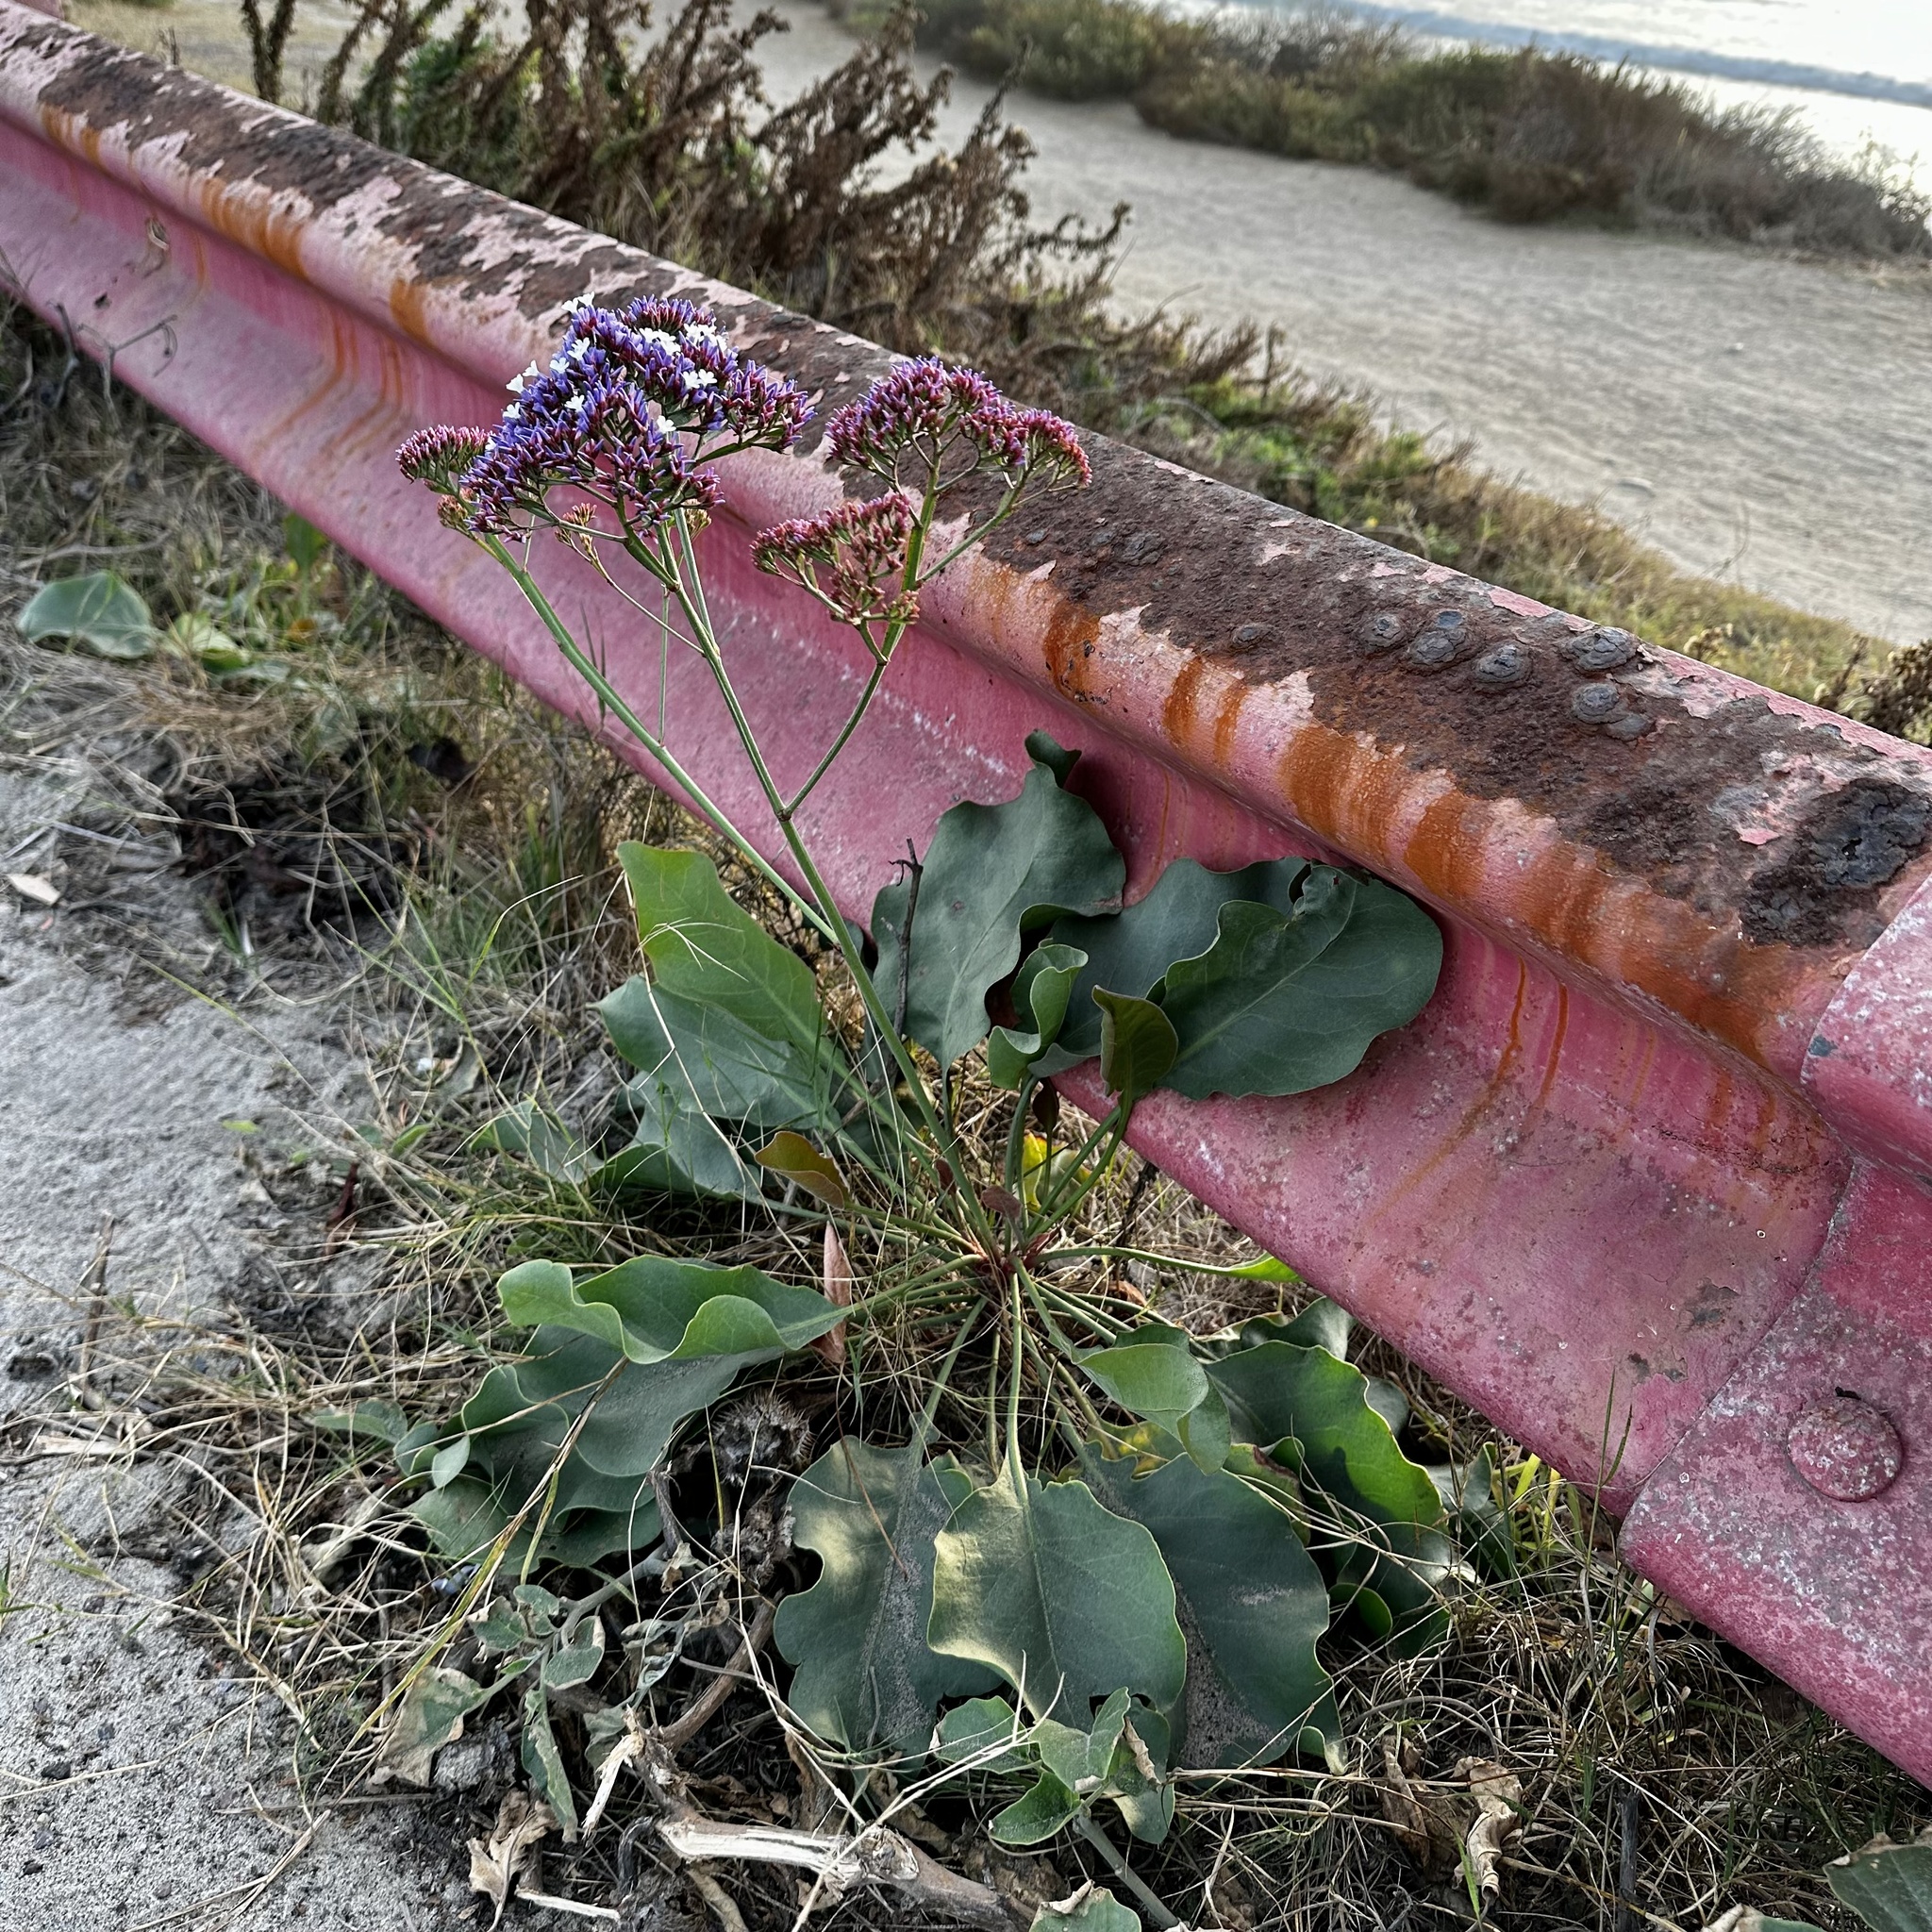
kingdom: Plantae
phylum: Tracheophyta
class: Magnoliopsida
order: Caryophyllales
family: Plumbaginaceae
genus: Limonium
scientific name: Limonium perezii
